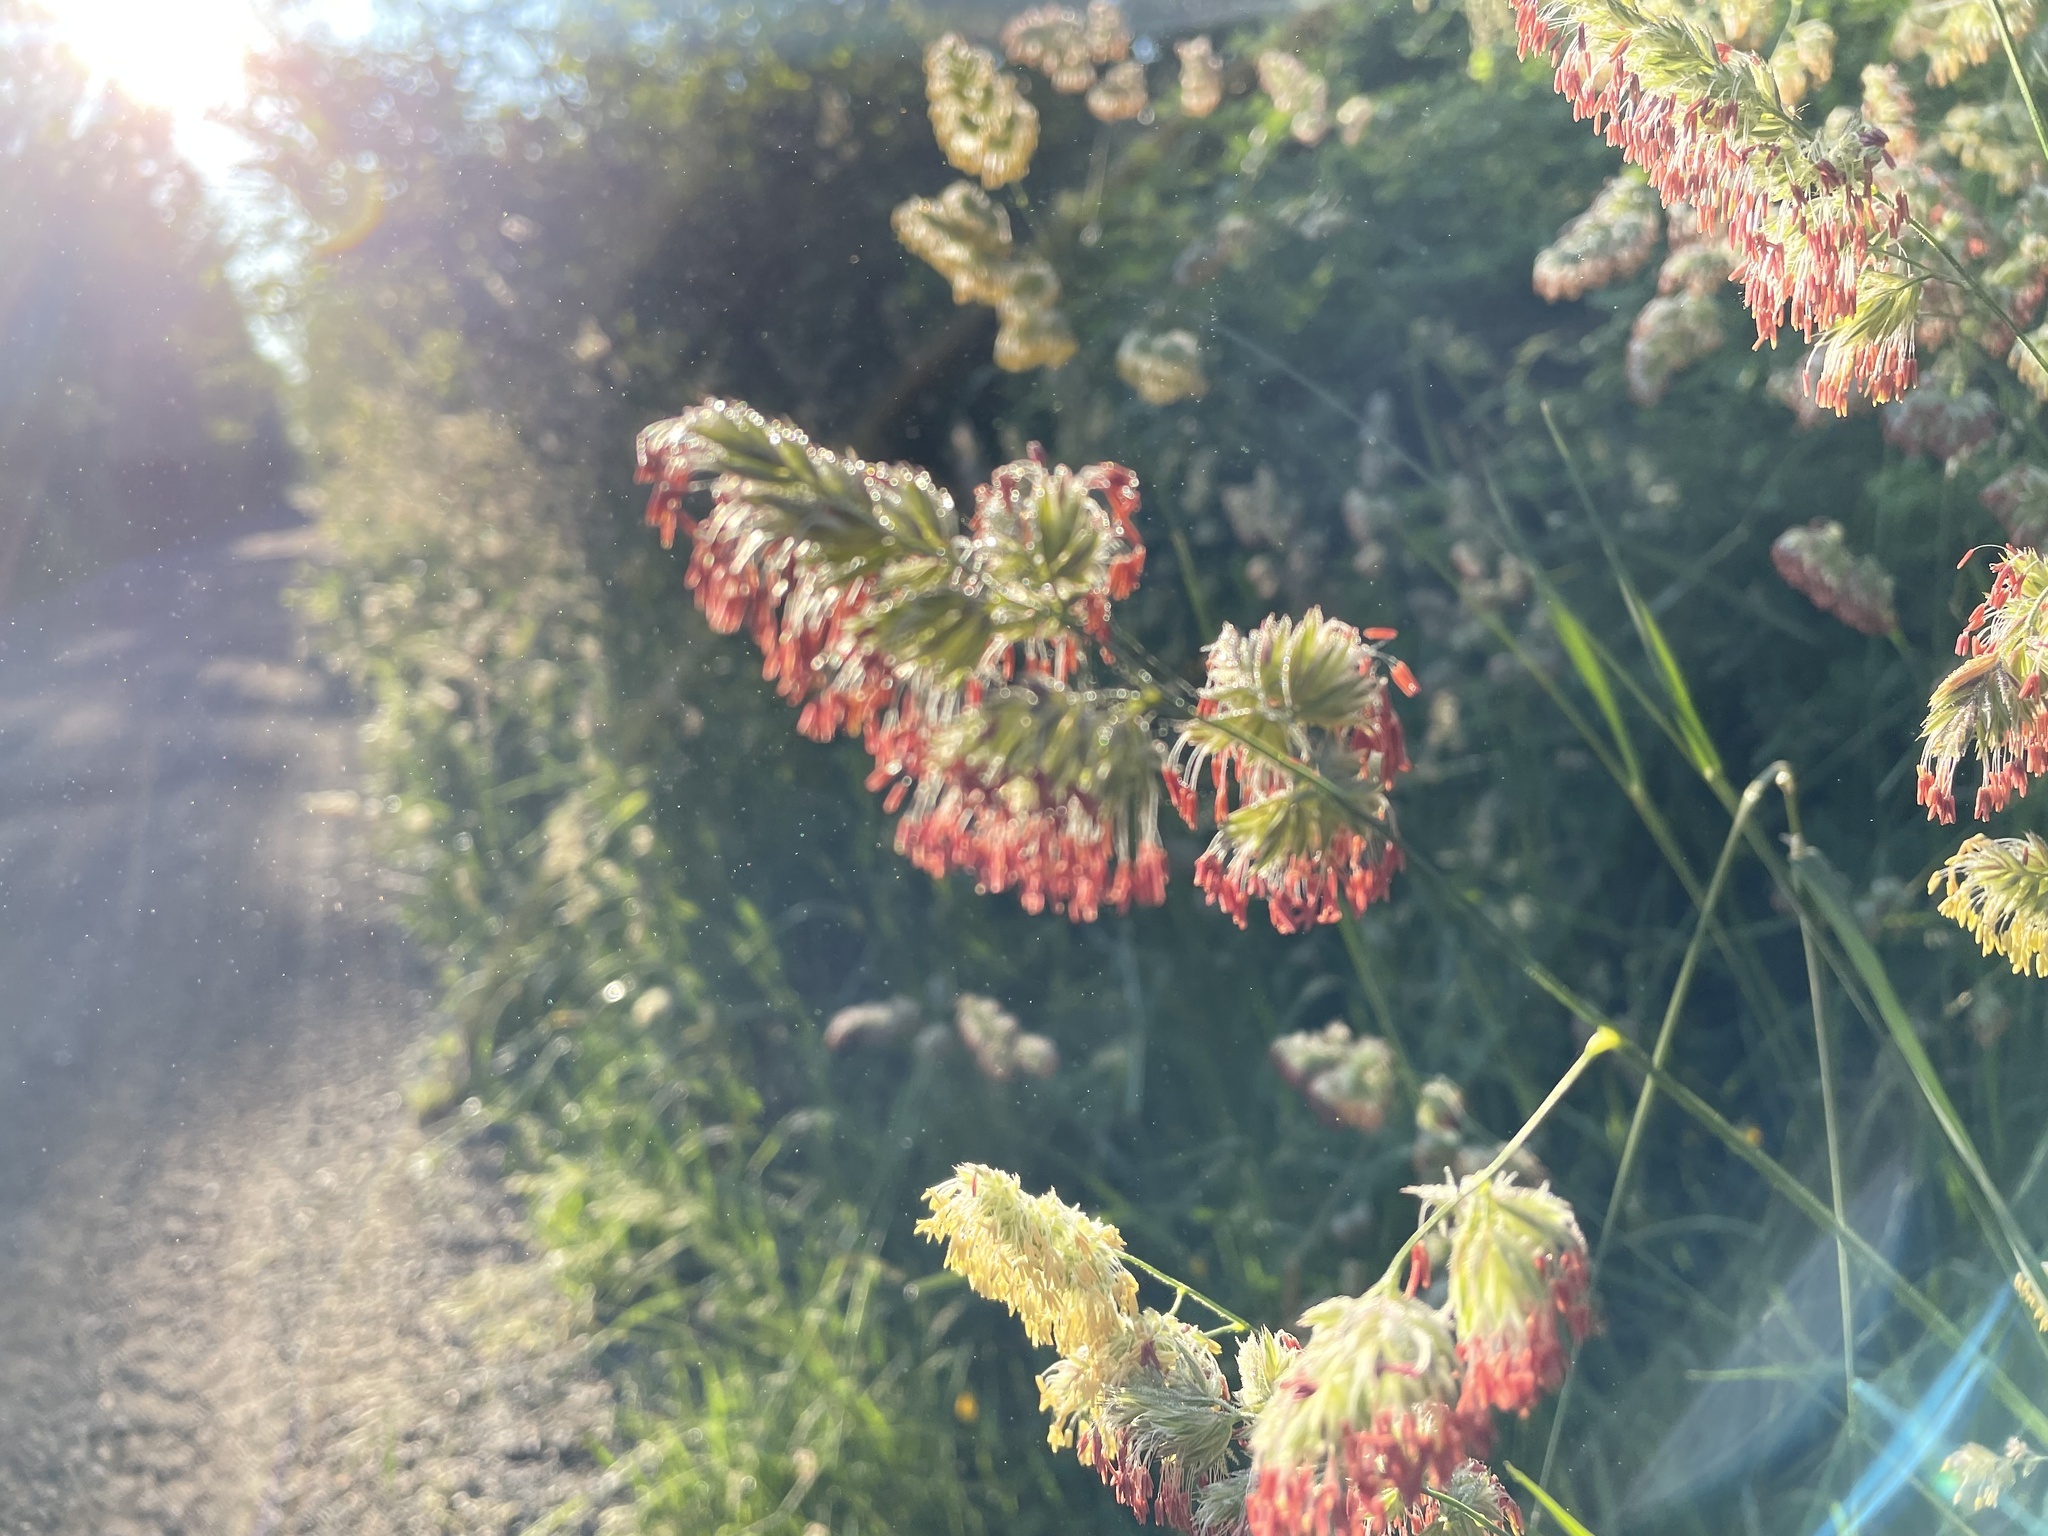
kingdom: Plantae
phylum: Tracheophyta
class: Liliopsida
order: Poales
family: Poaceae
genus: Dactylis
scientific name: Dactylis glomerata
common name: Orchardgrass
